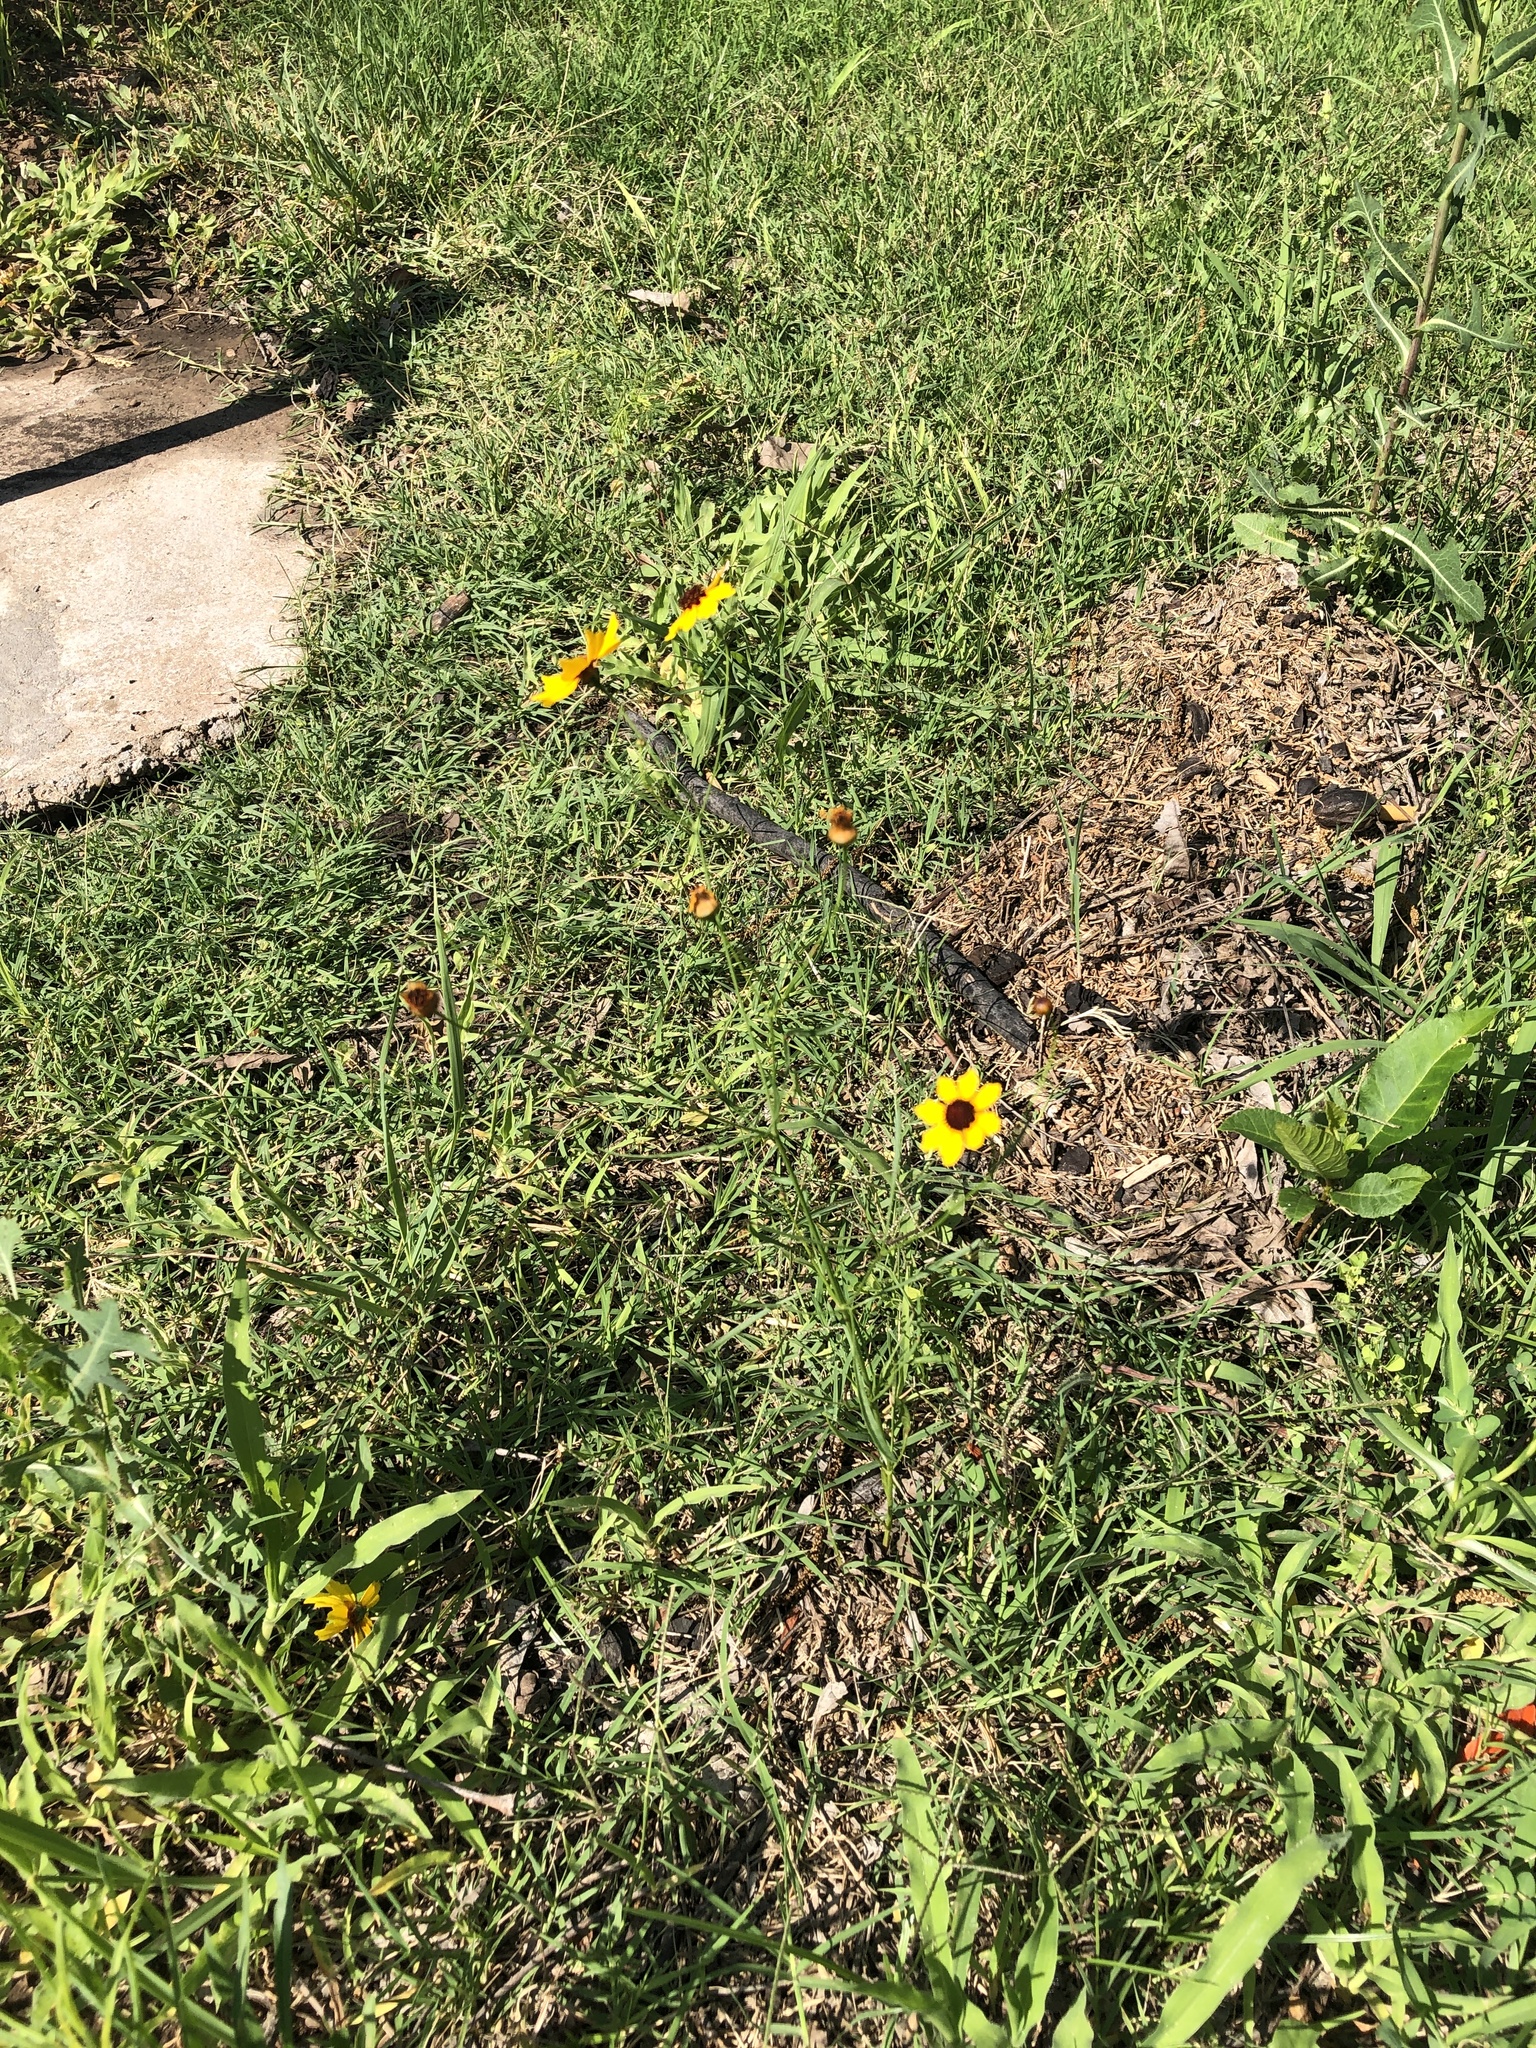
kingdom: Plantae
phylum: Tracheophyta
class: Magnoliopsida
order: Asterales
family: Asteraceae
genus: Coreopsis
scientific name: Coreopsis tinctoria
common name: Garden tickseed
